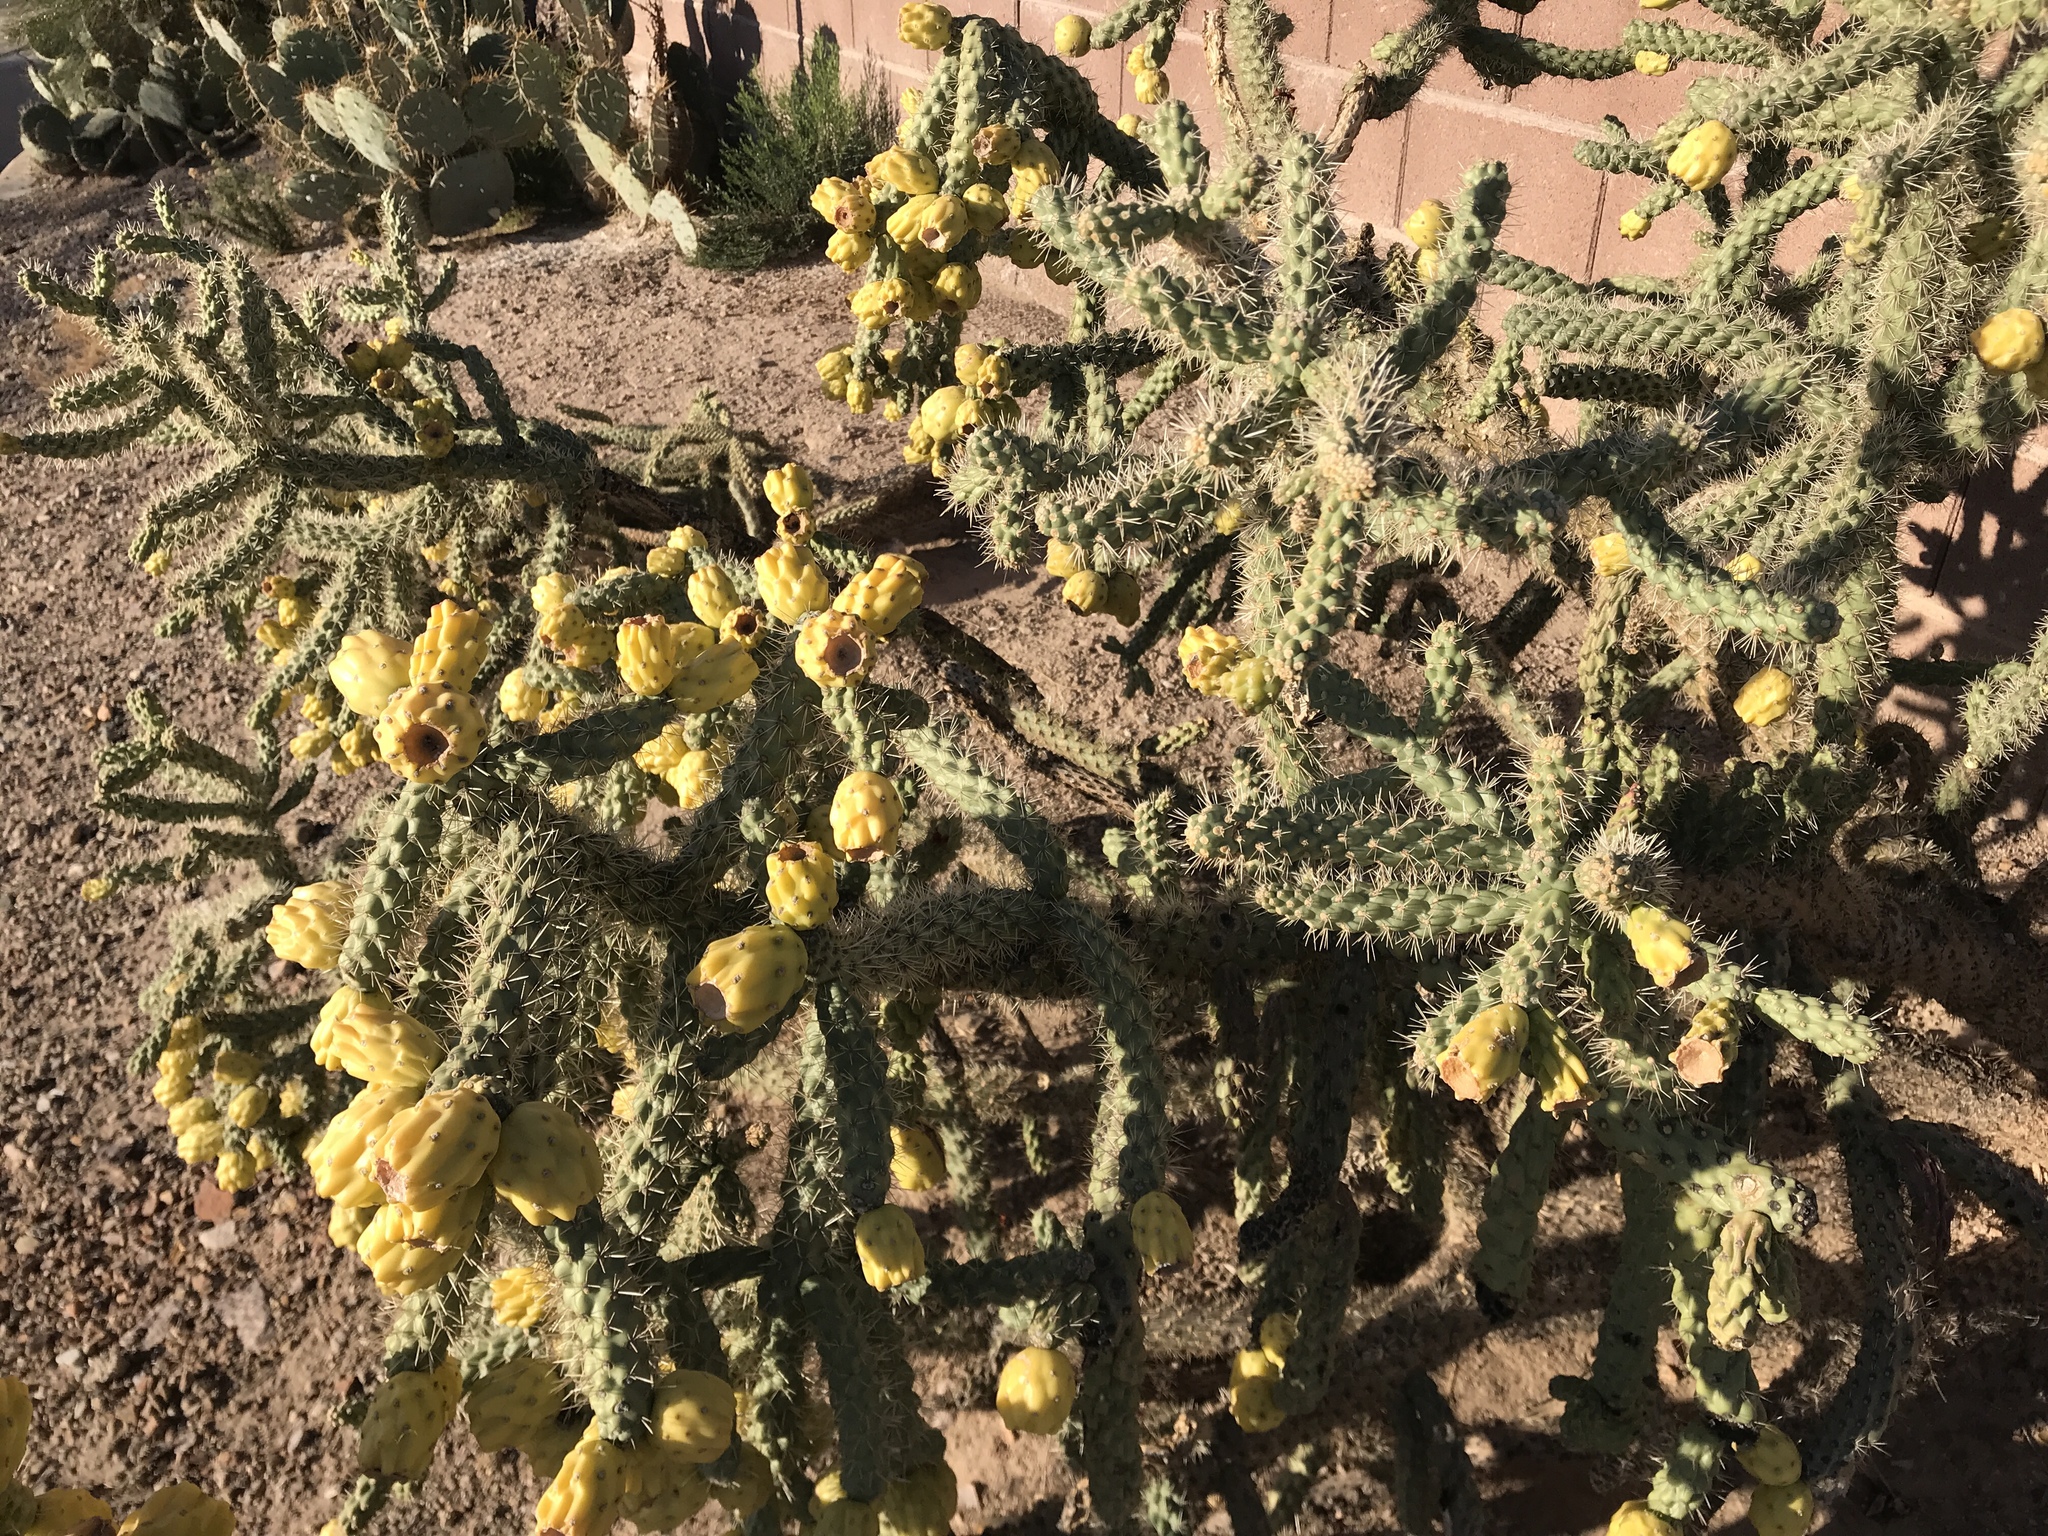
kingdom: Plantae
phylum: Tracheophyta
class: Magnoliopsida
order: Caryophyllales
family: Cactaceae
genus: Cylindropuntia
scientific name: Cylindropuntia imbricata
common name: Candelabrum cactus
